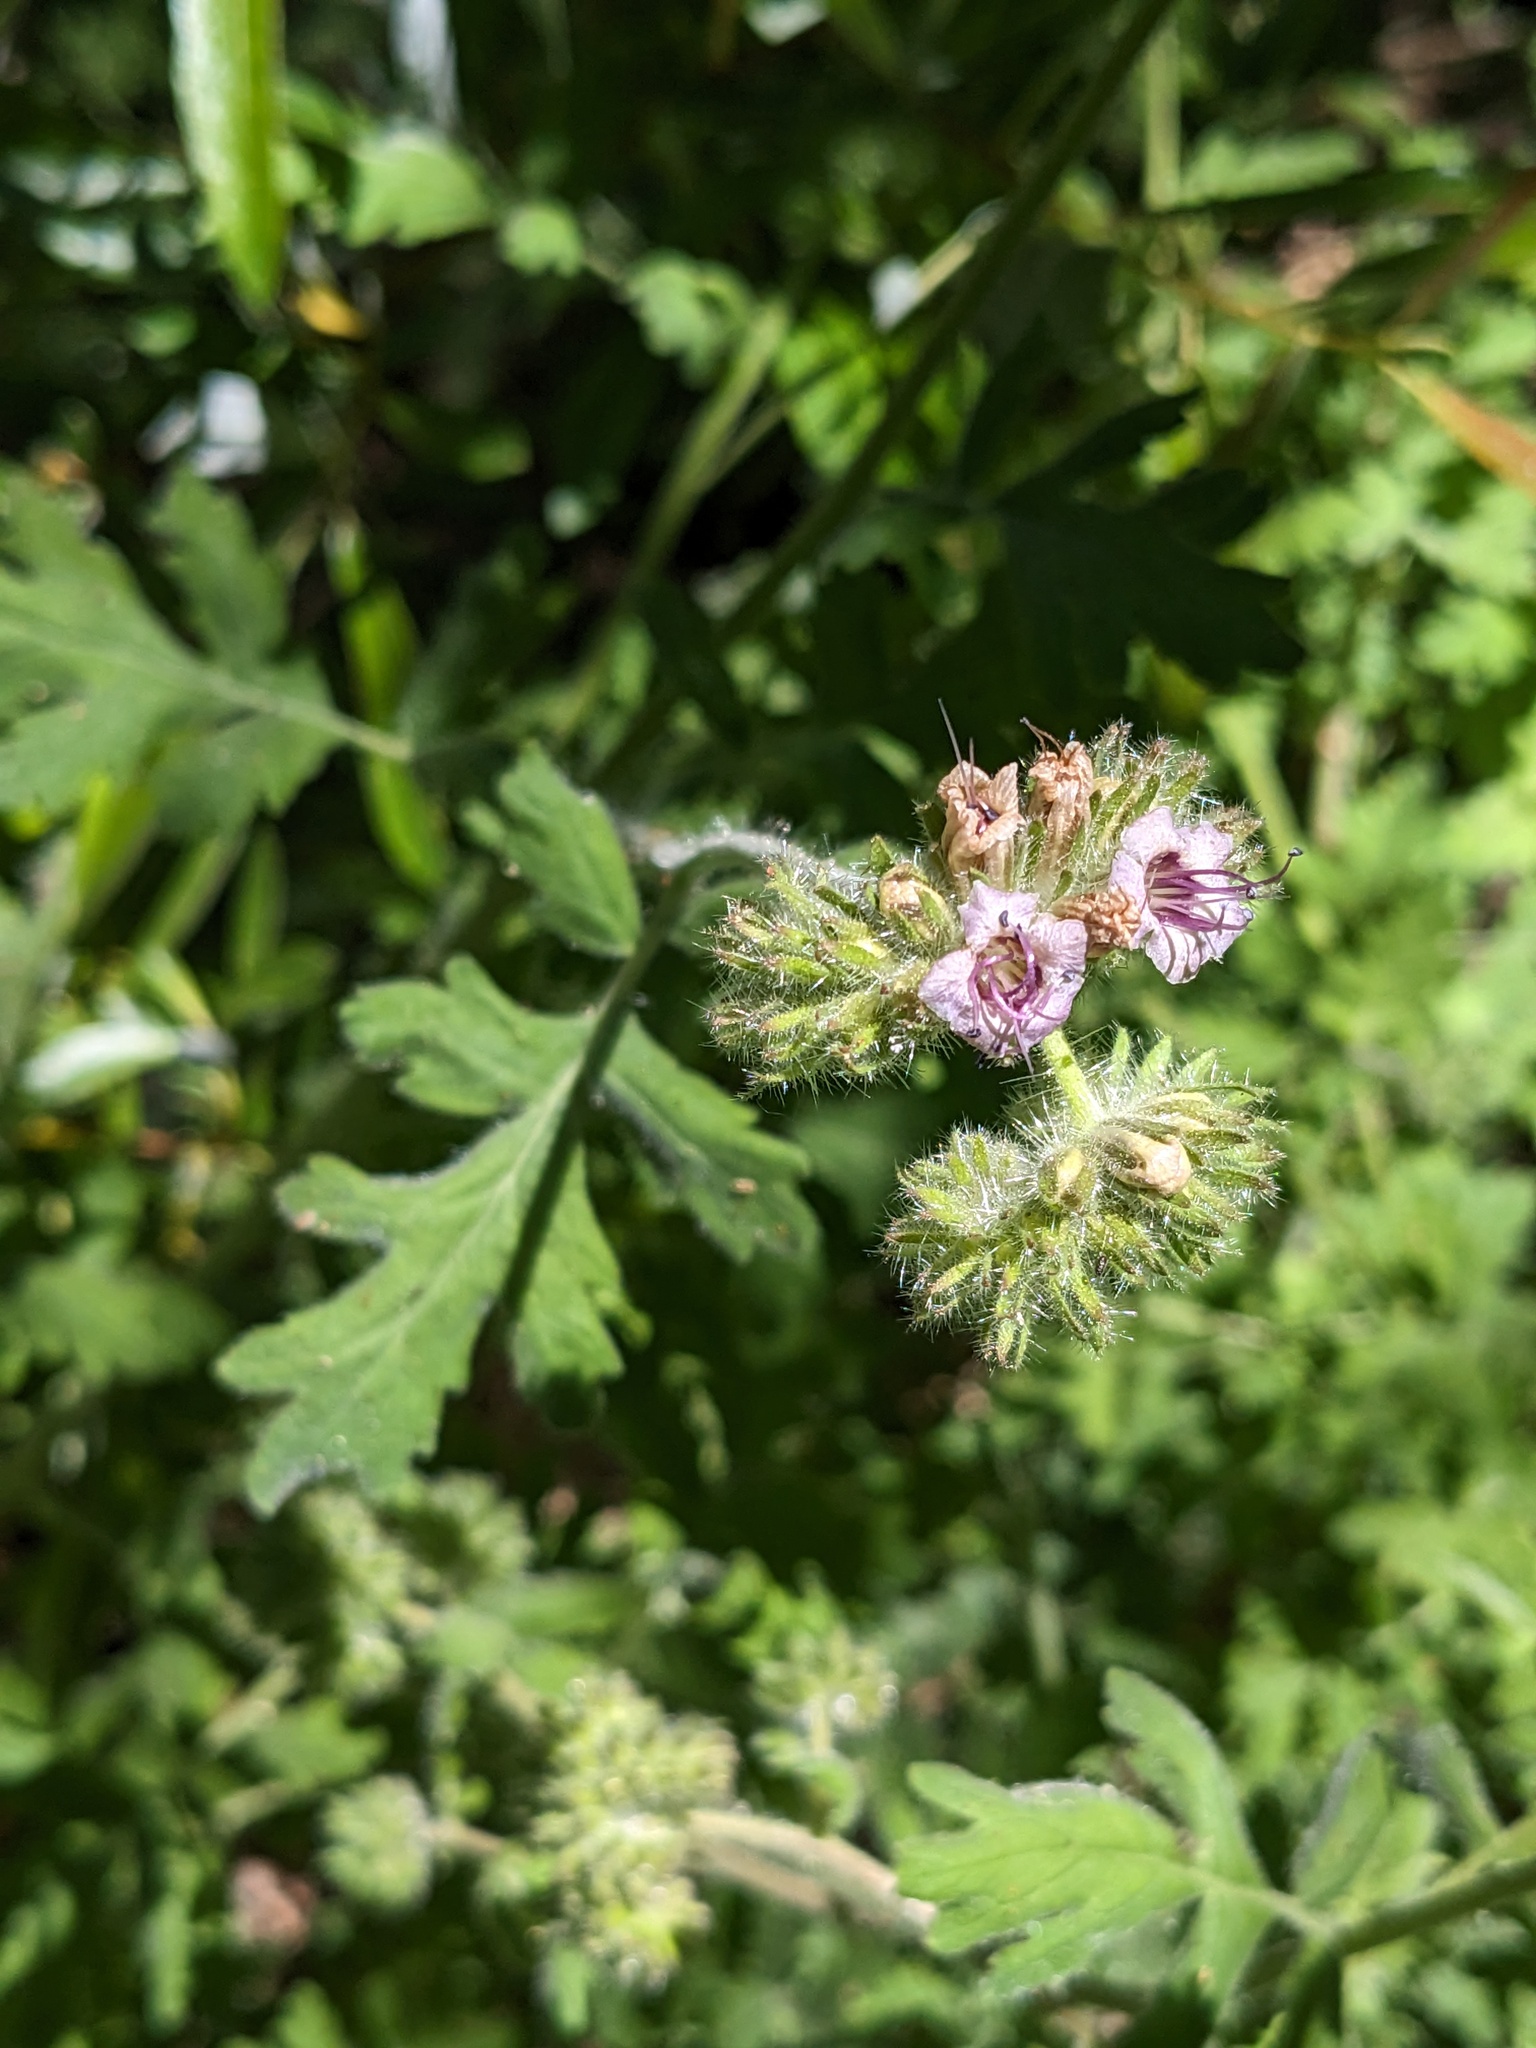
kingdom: Plantae
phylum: Tracheophyta
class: Magnoliopsida
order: Boraginales
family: Hydrophyllaceae
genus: Phacelia
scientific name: Phacelia ramosissima
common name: Branching phacelia
